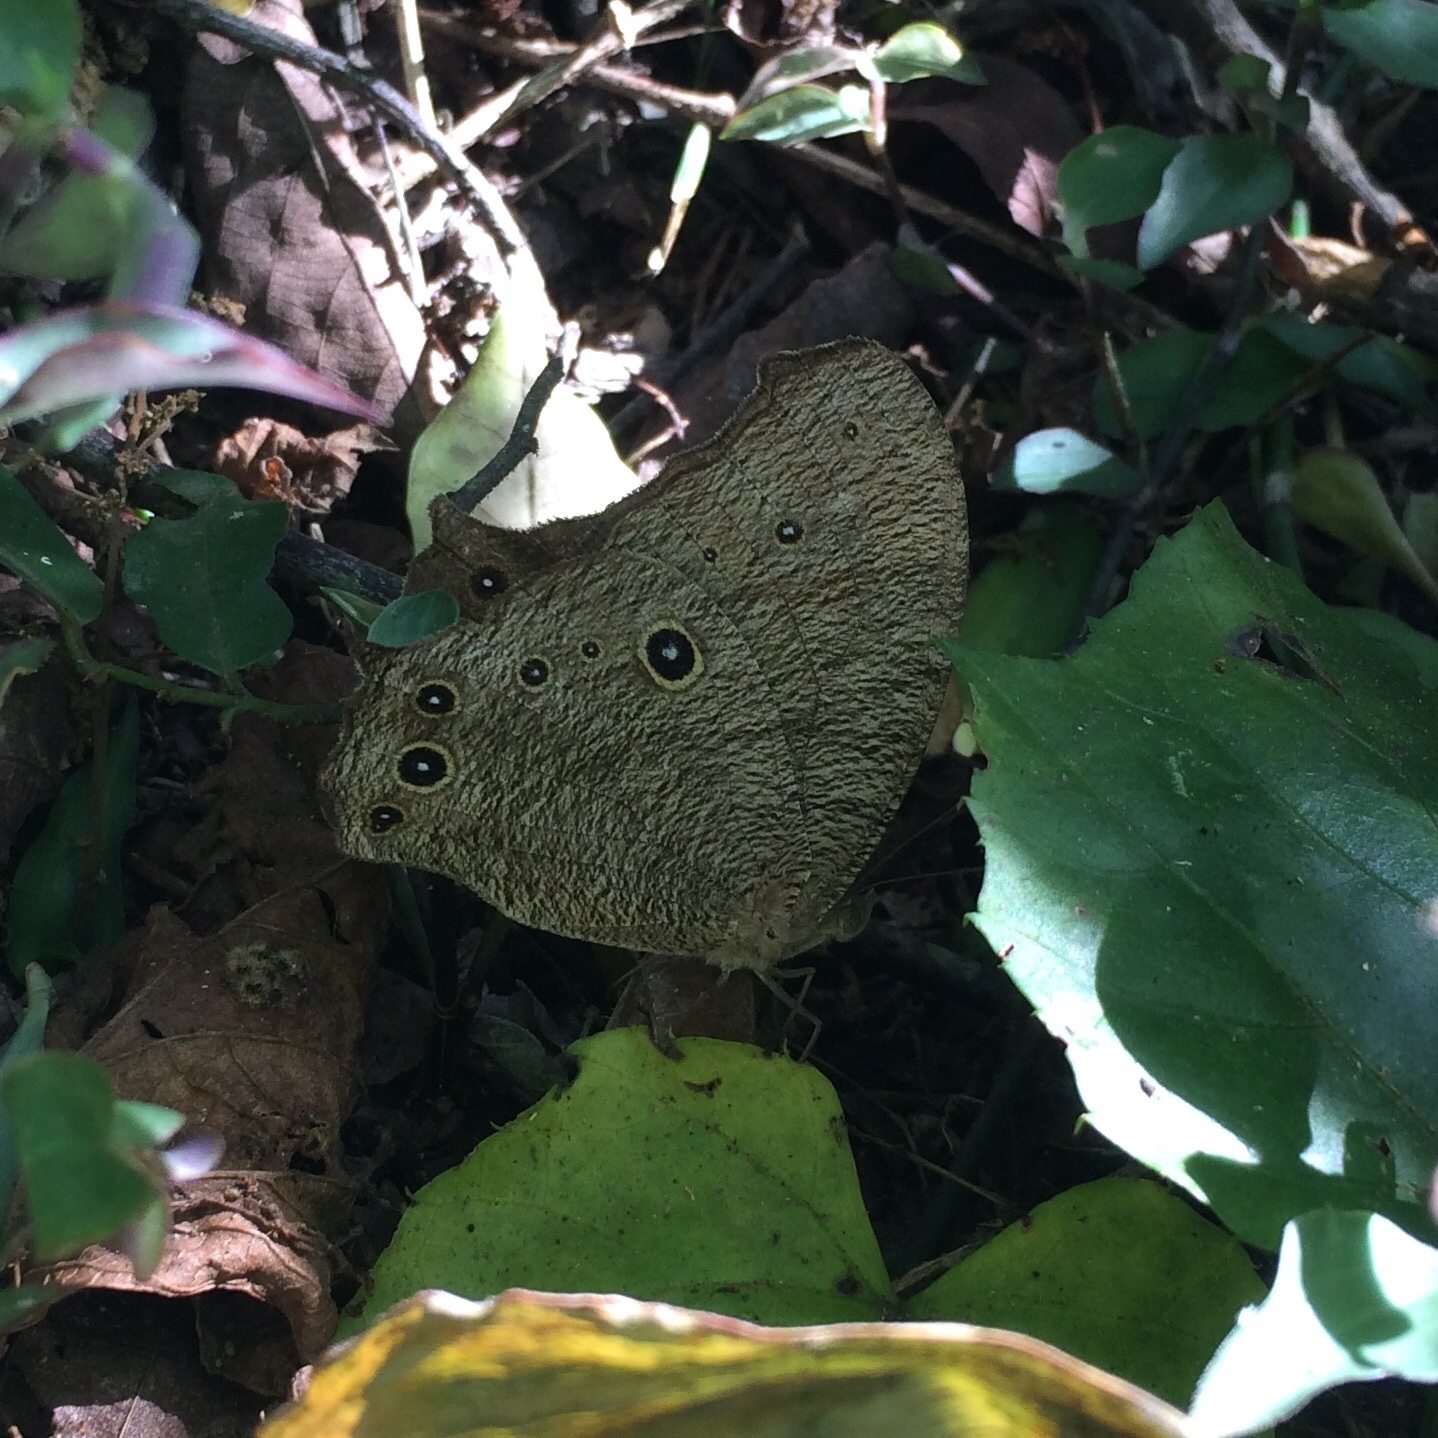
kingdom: Animalia
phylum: Arthropoda
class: Insecta
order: Lepidoptera
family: Nymphalidae
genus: Melanitis
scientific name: Melanitis leda
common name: Twilight brown
